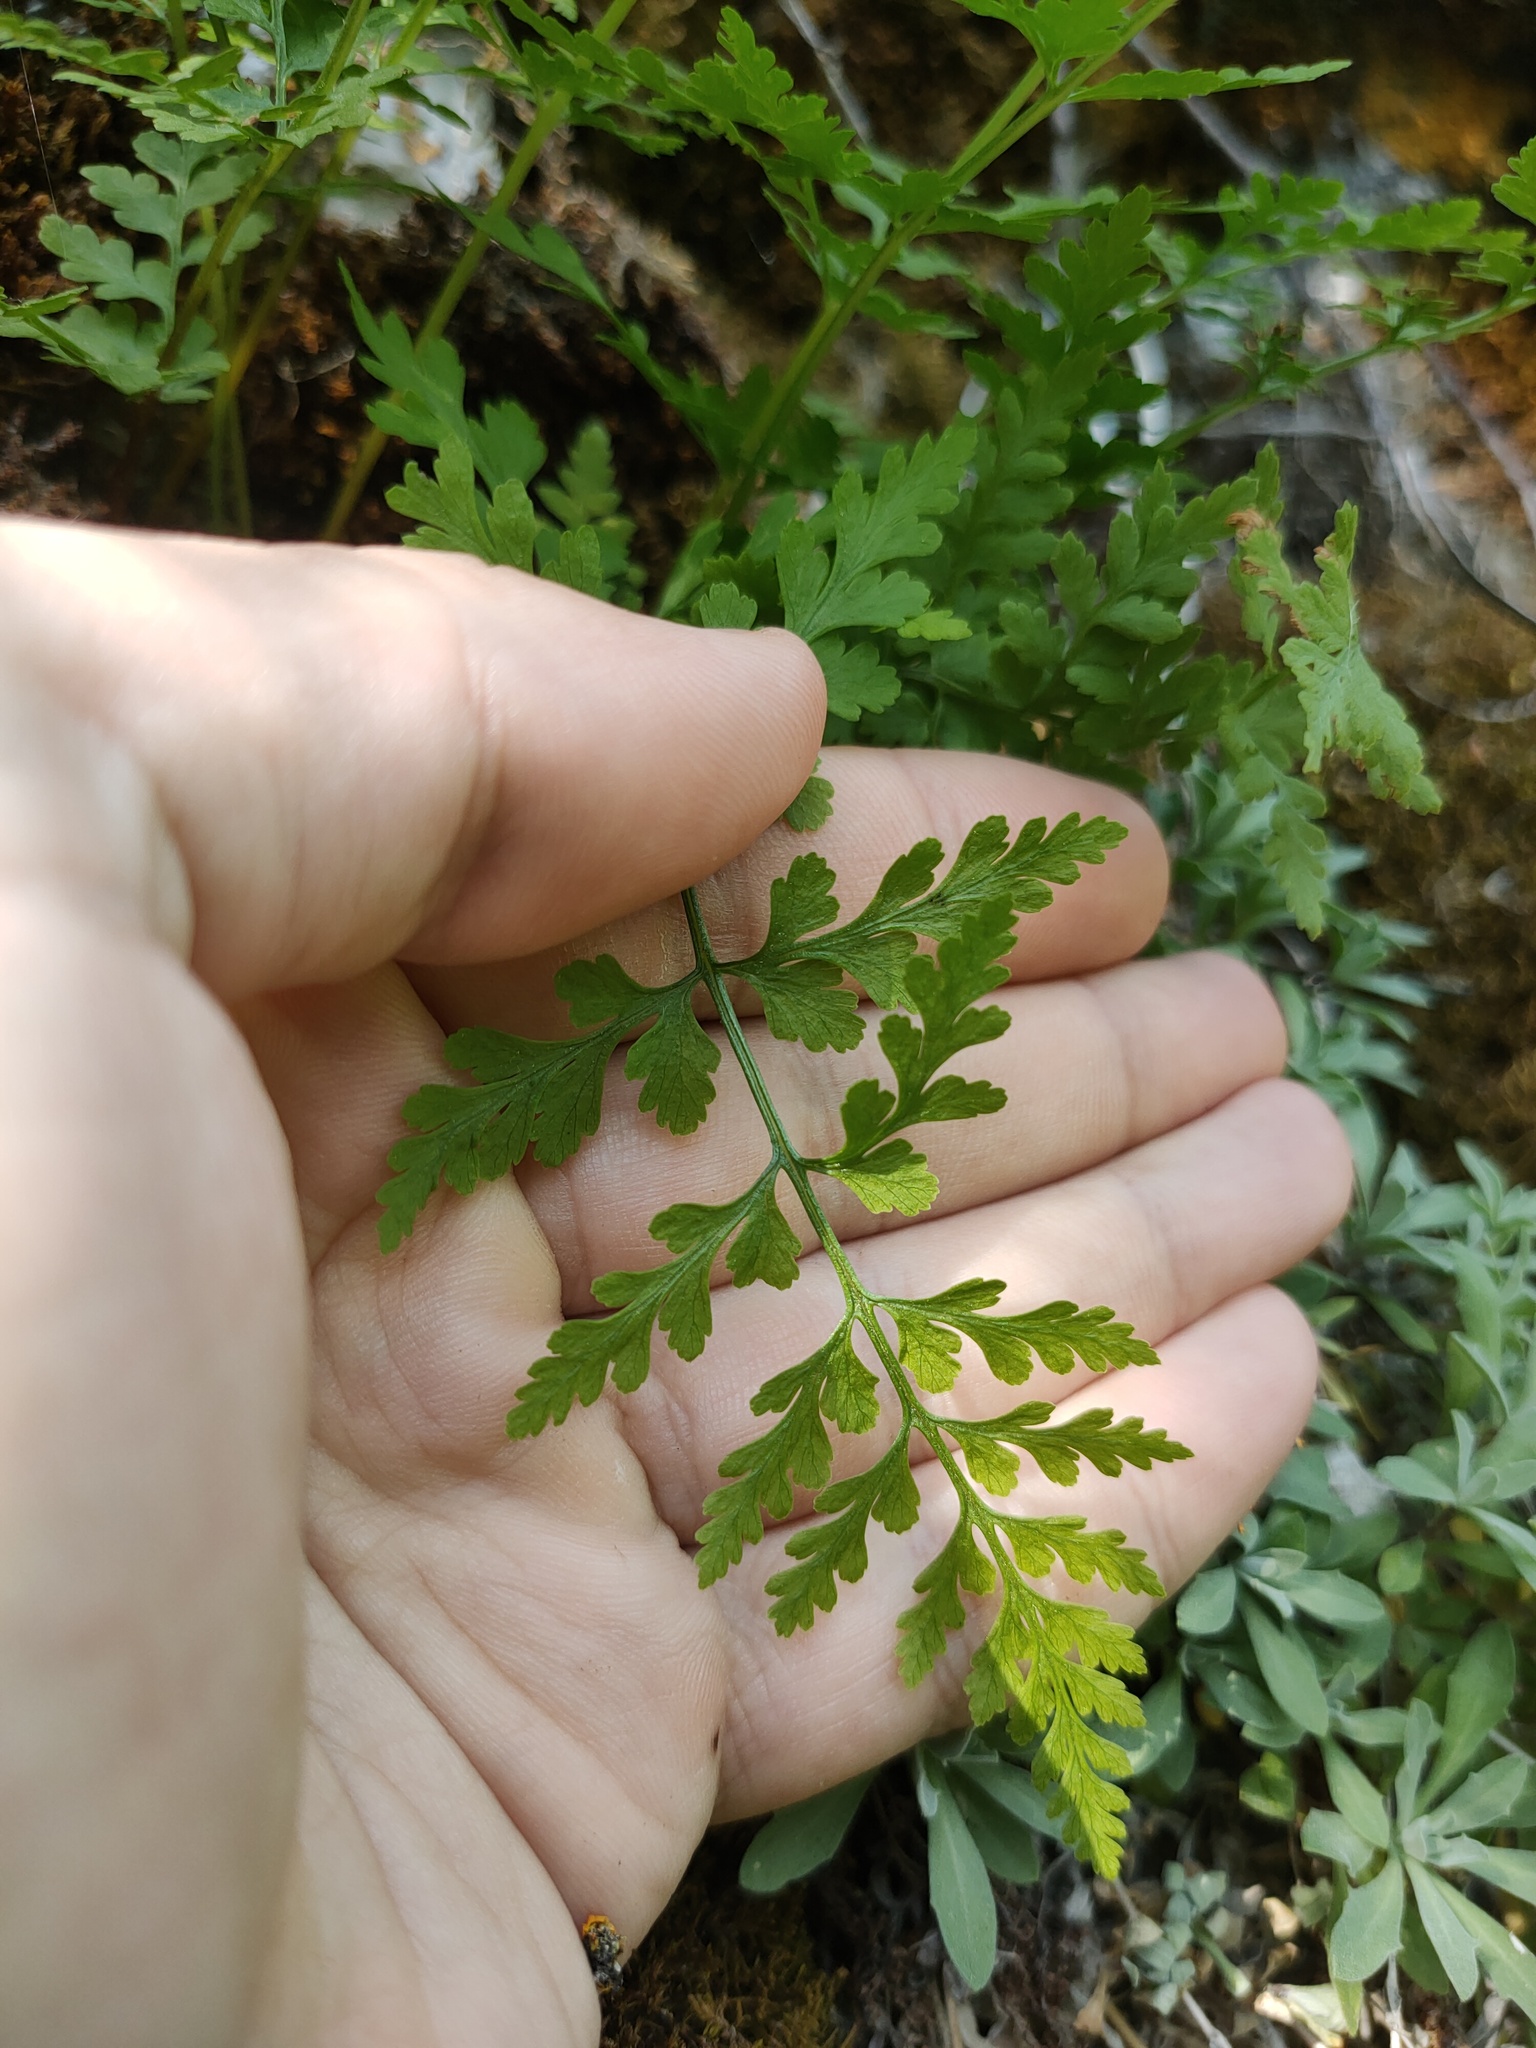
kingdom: Plantae
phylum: Tracheophyta
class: Polypodiopsida
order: Polypodiales
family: Cystopteridaceae
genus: Cystopteris
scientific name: Cystopteris fragilis
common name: Brittle bladder fern
